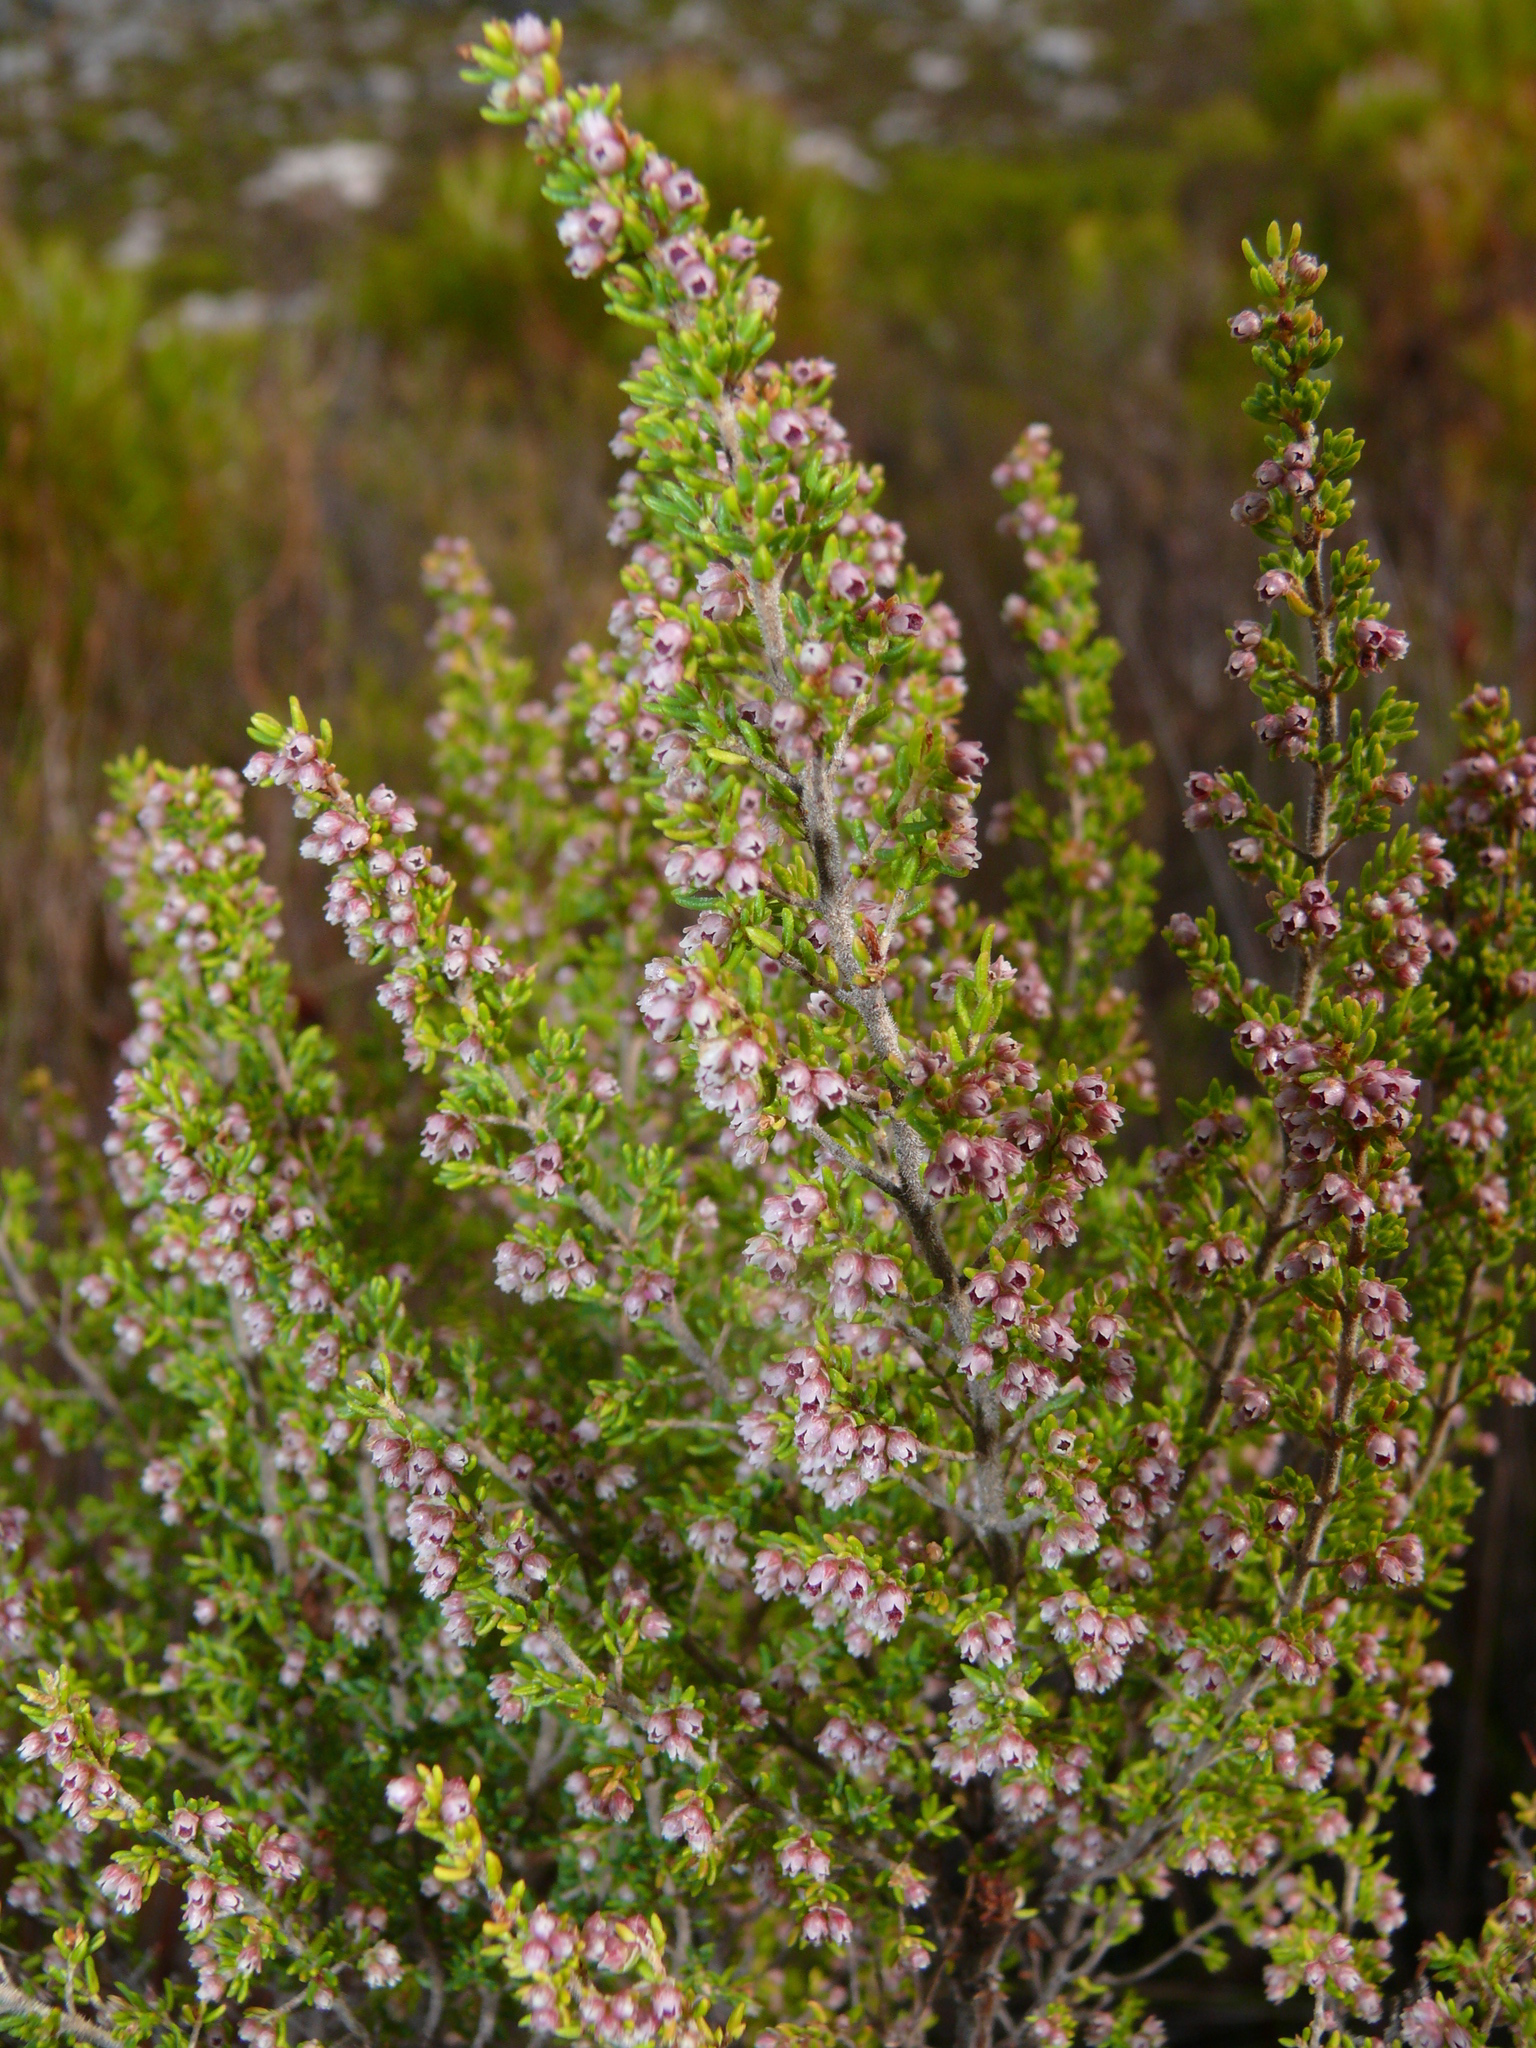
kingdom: Plantae
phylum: Tracheophyta
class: Magnoliopsida
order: Ericales
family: Ericaceae
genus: Erica
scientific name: Erica hispidula
